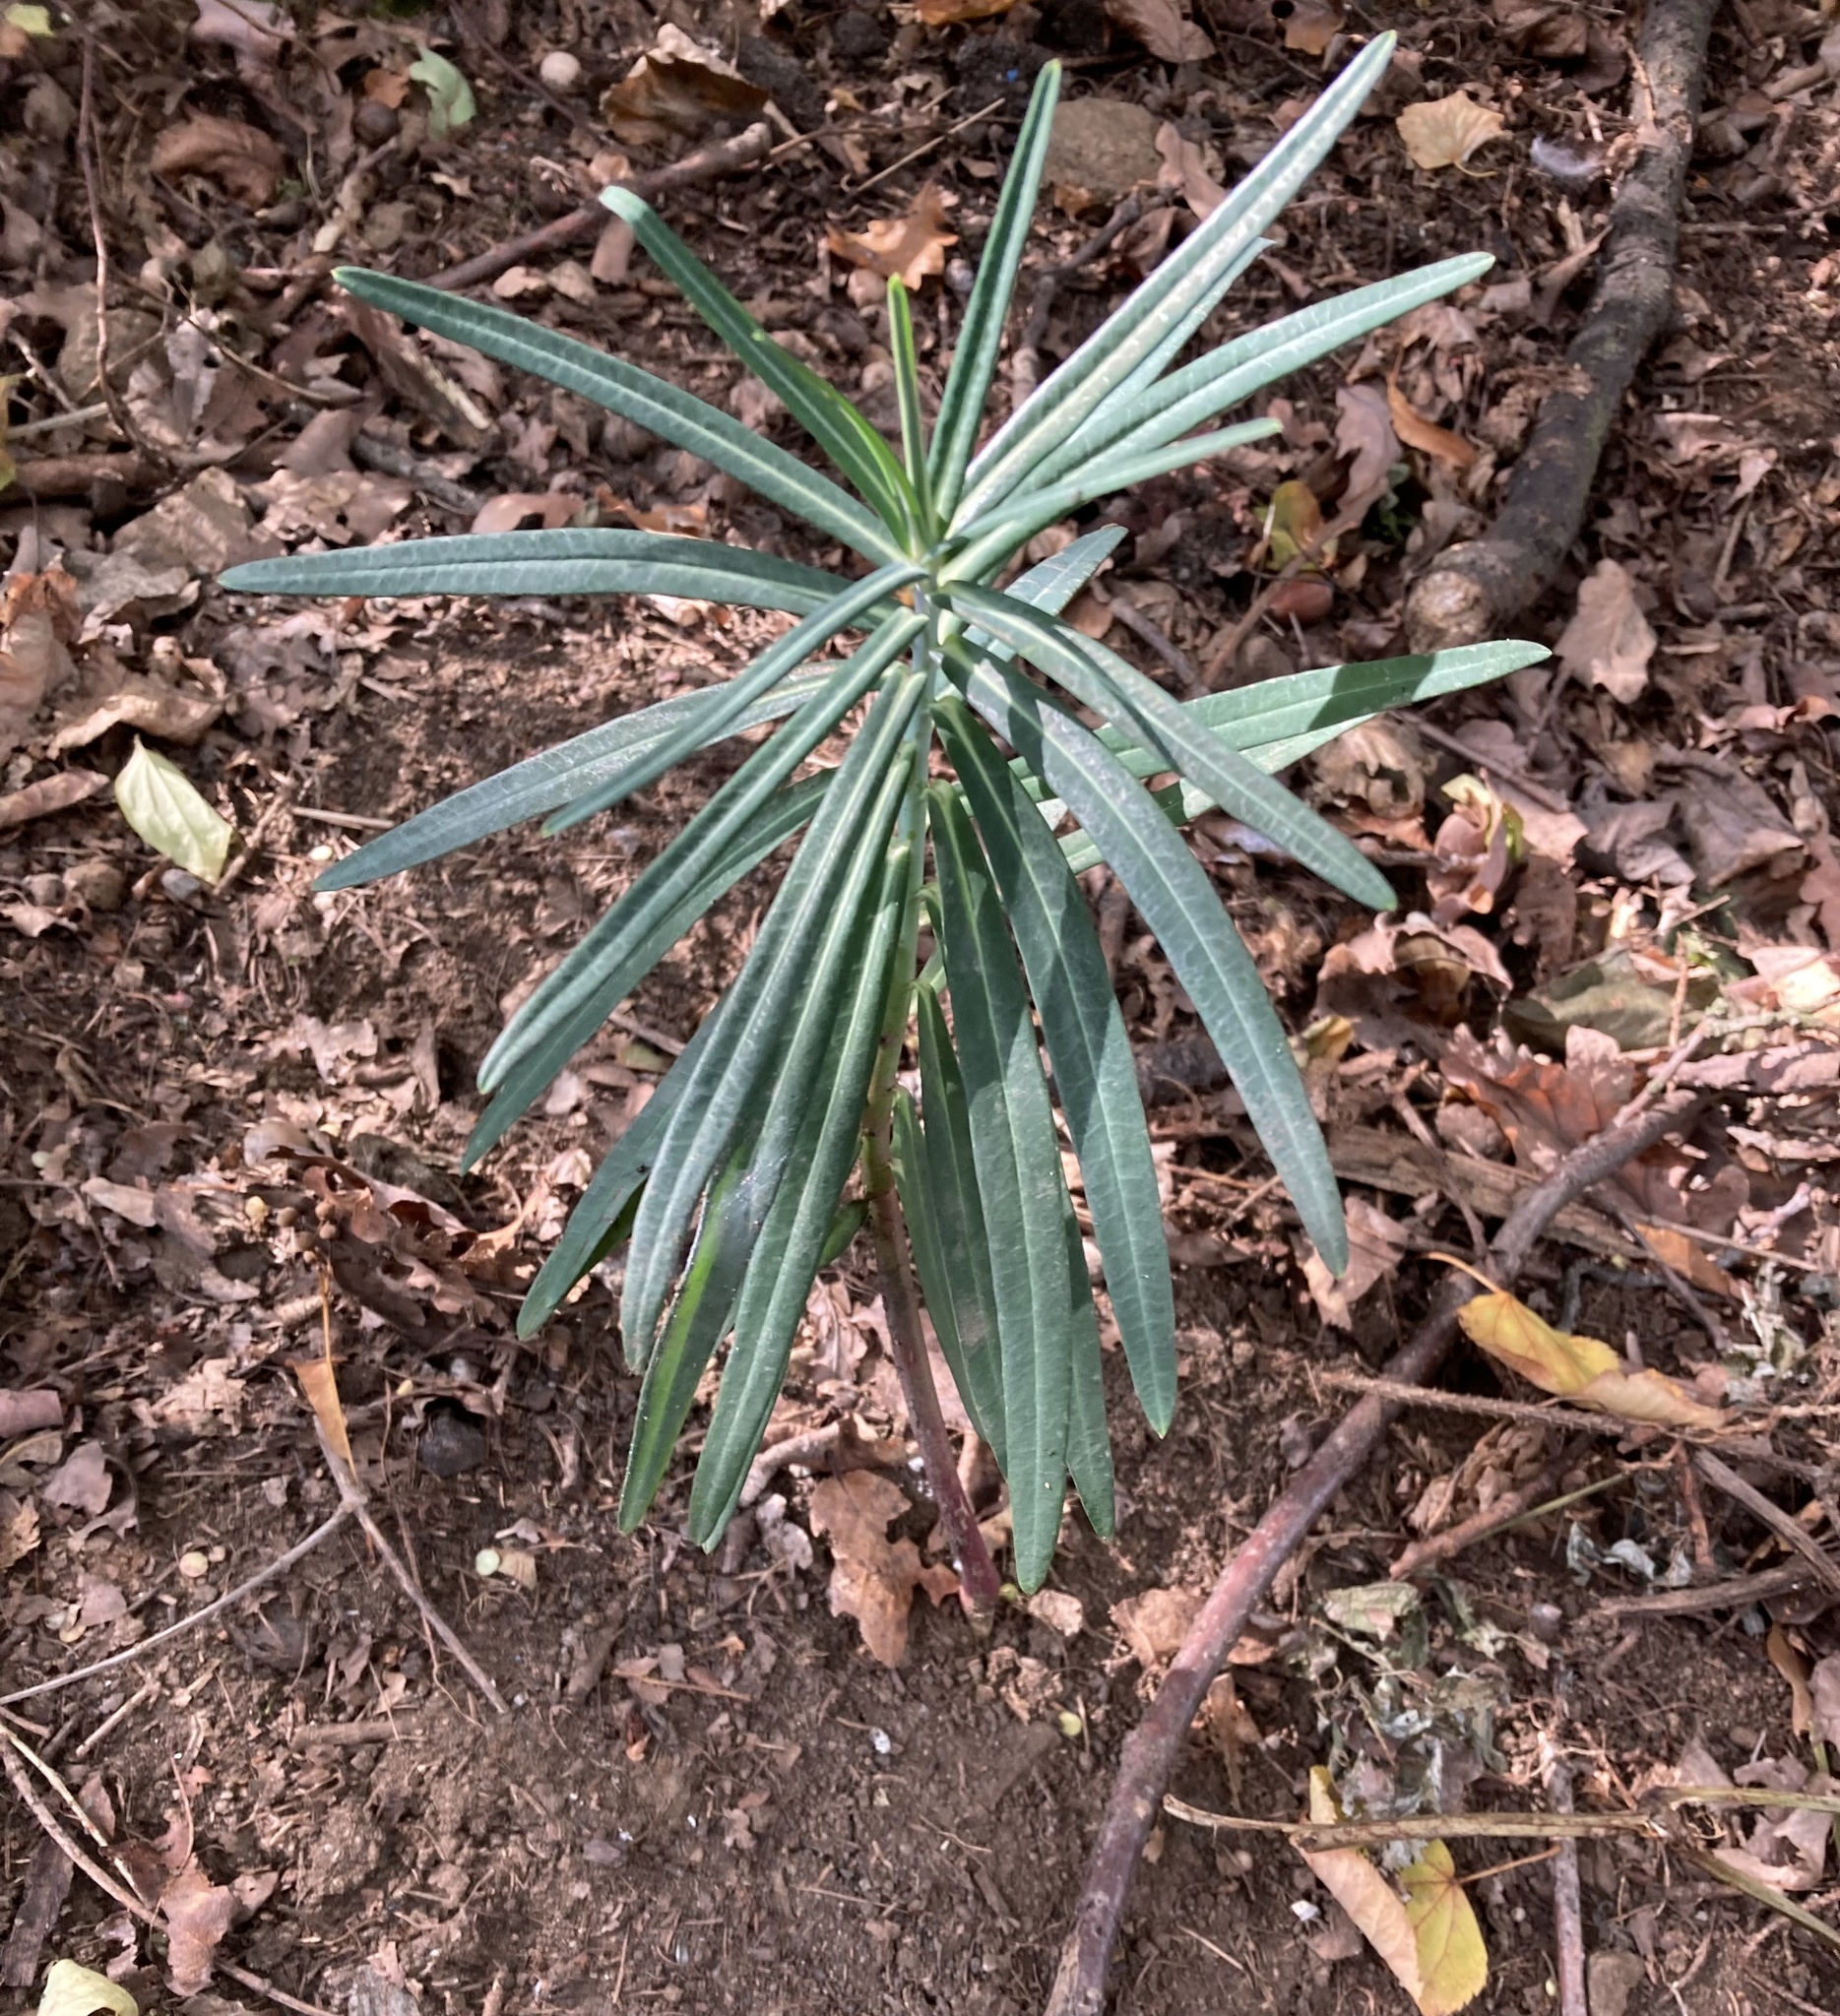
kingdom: Plantae
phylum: Tracheophyta
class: Magnoliopsida
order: Malpighiales
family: Euphorbiaceae
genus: Euphorbia
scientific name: Euphorbia lathyris
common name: Caper spurge
